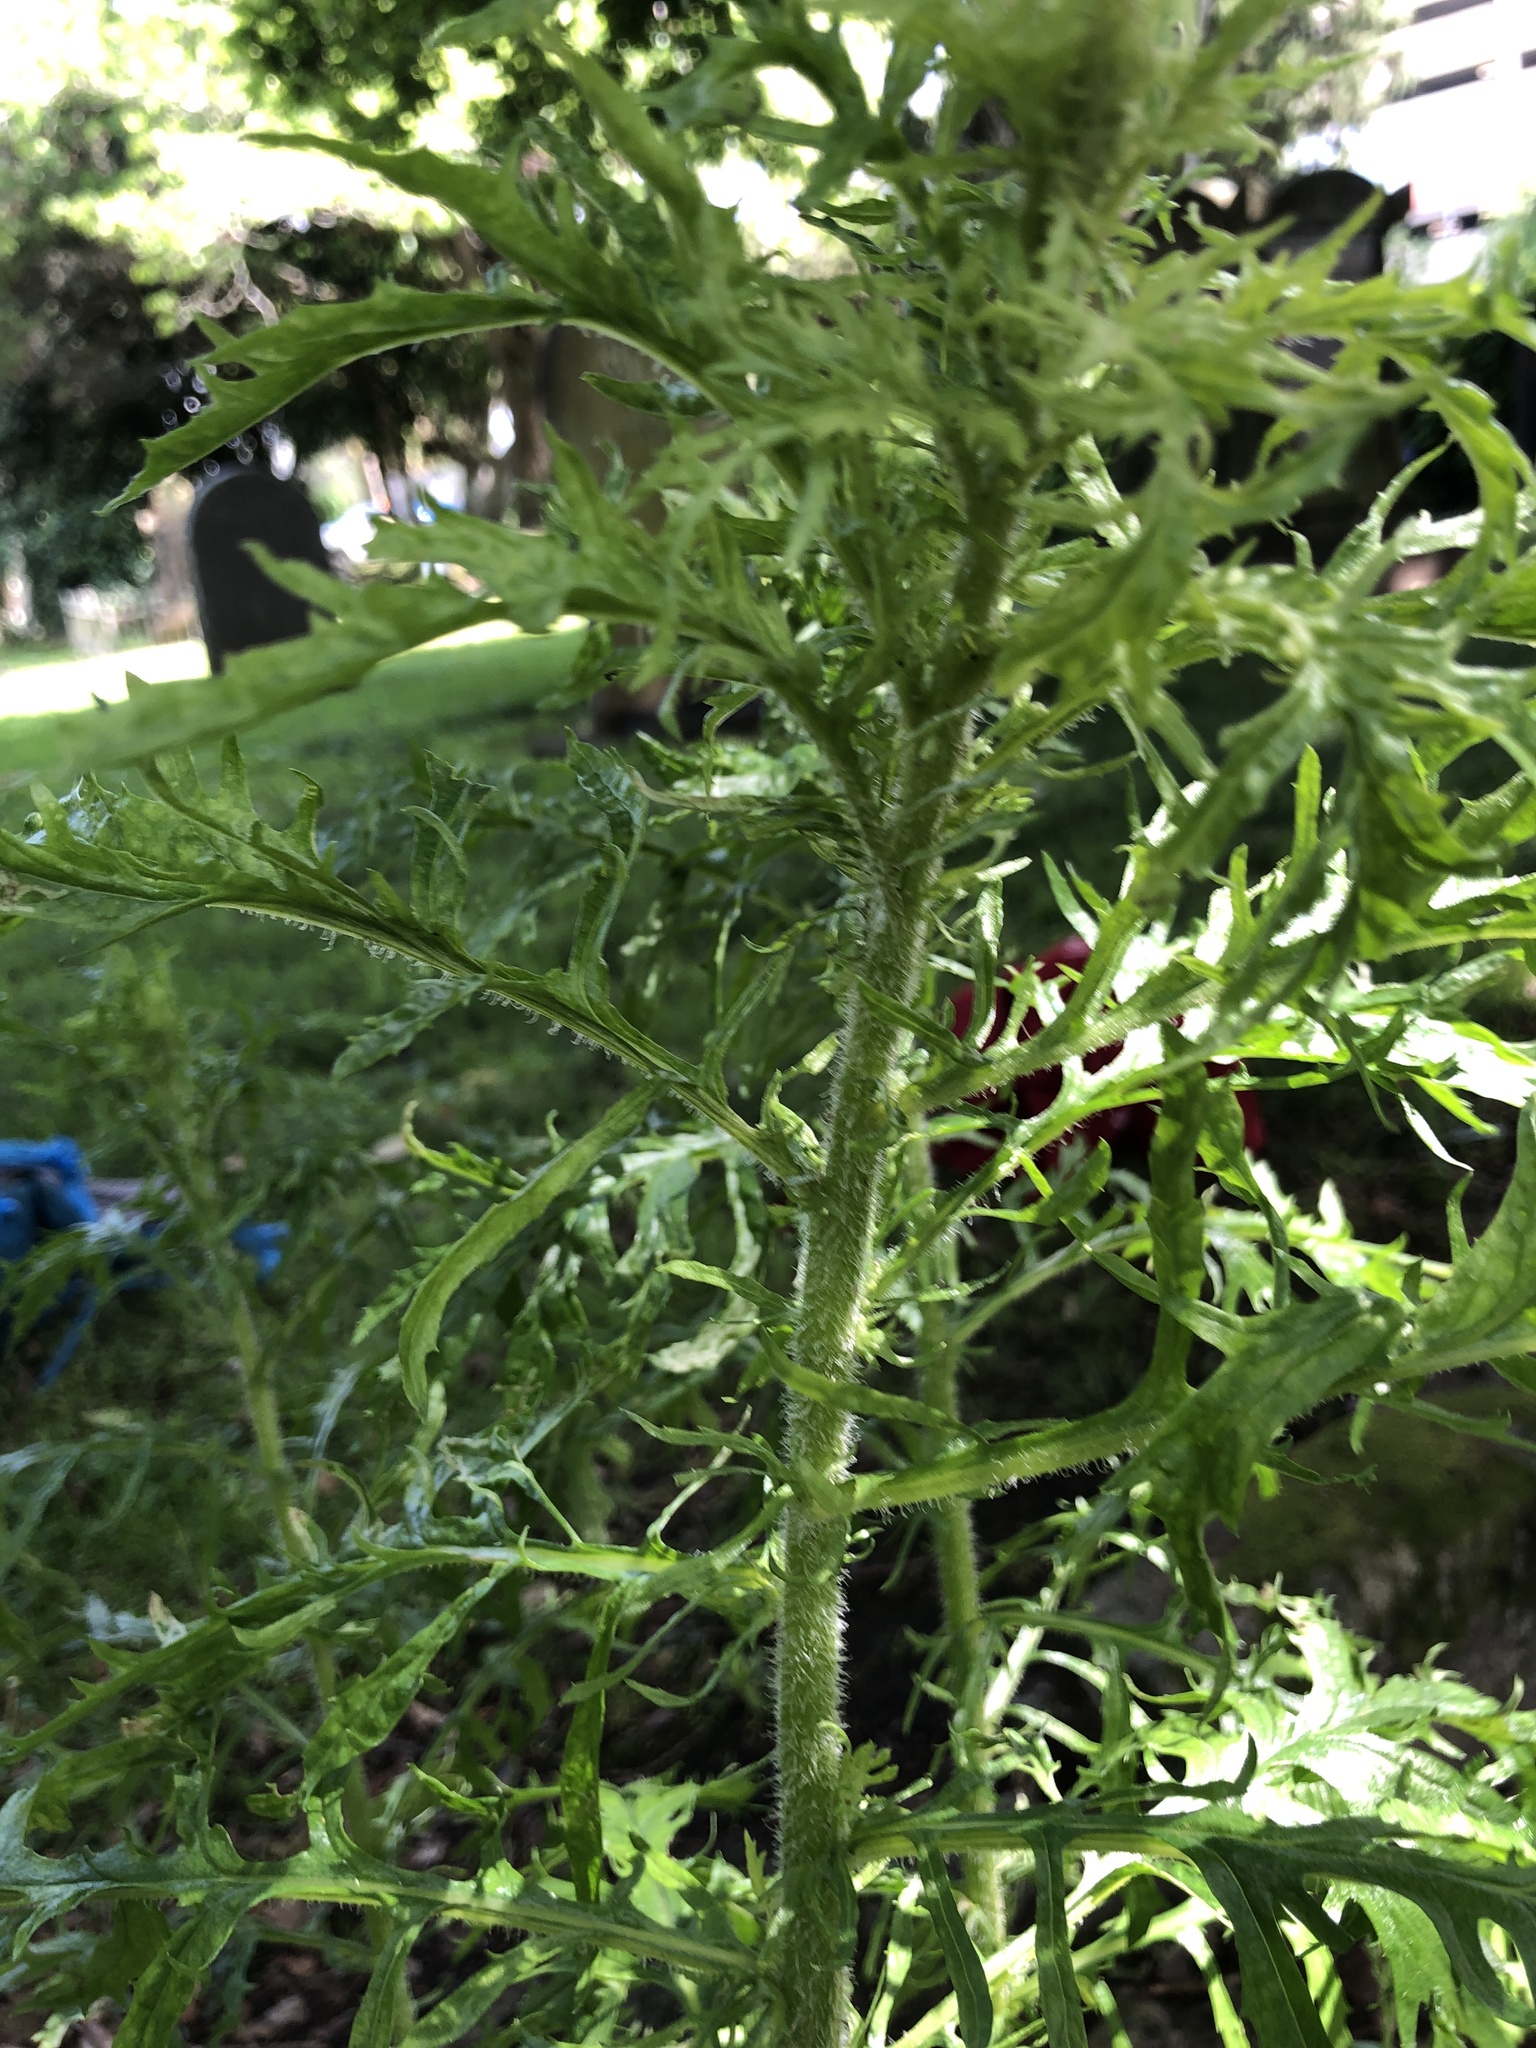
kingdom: Plantae
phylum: Tracheophyta
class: Magnoliopsida
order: Asterales
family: Asteraceae
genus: Senecio
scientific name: Senecio esleri
